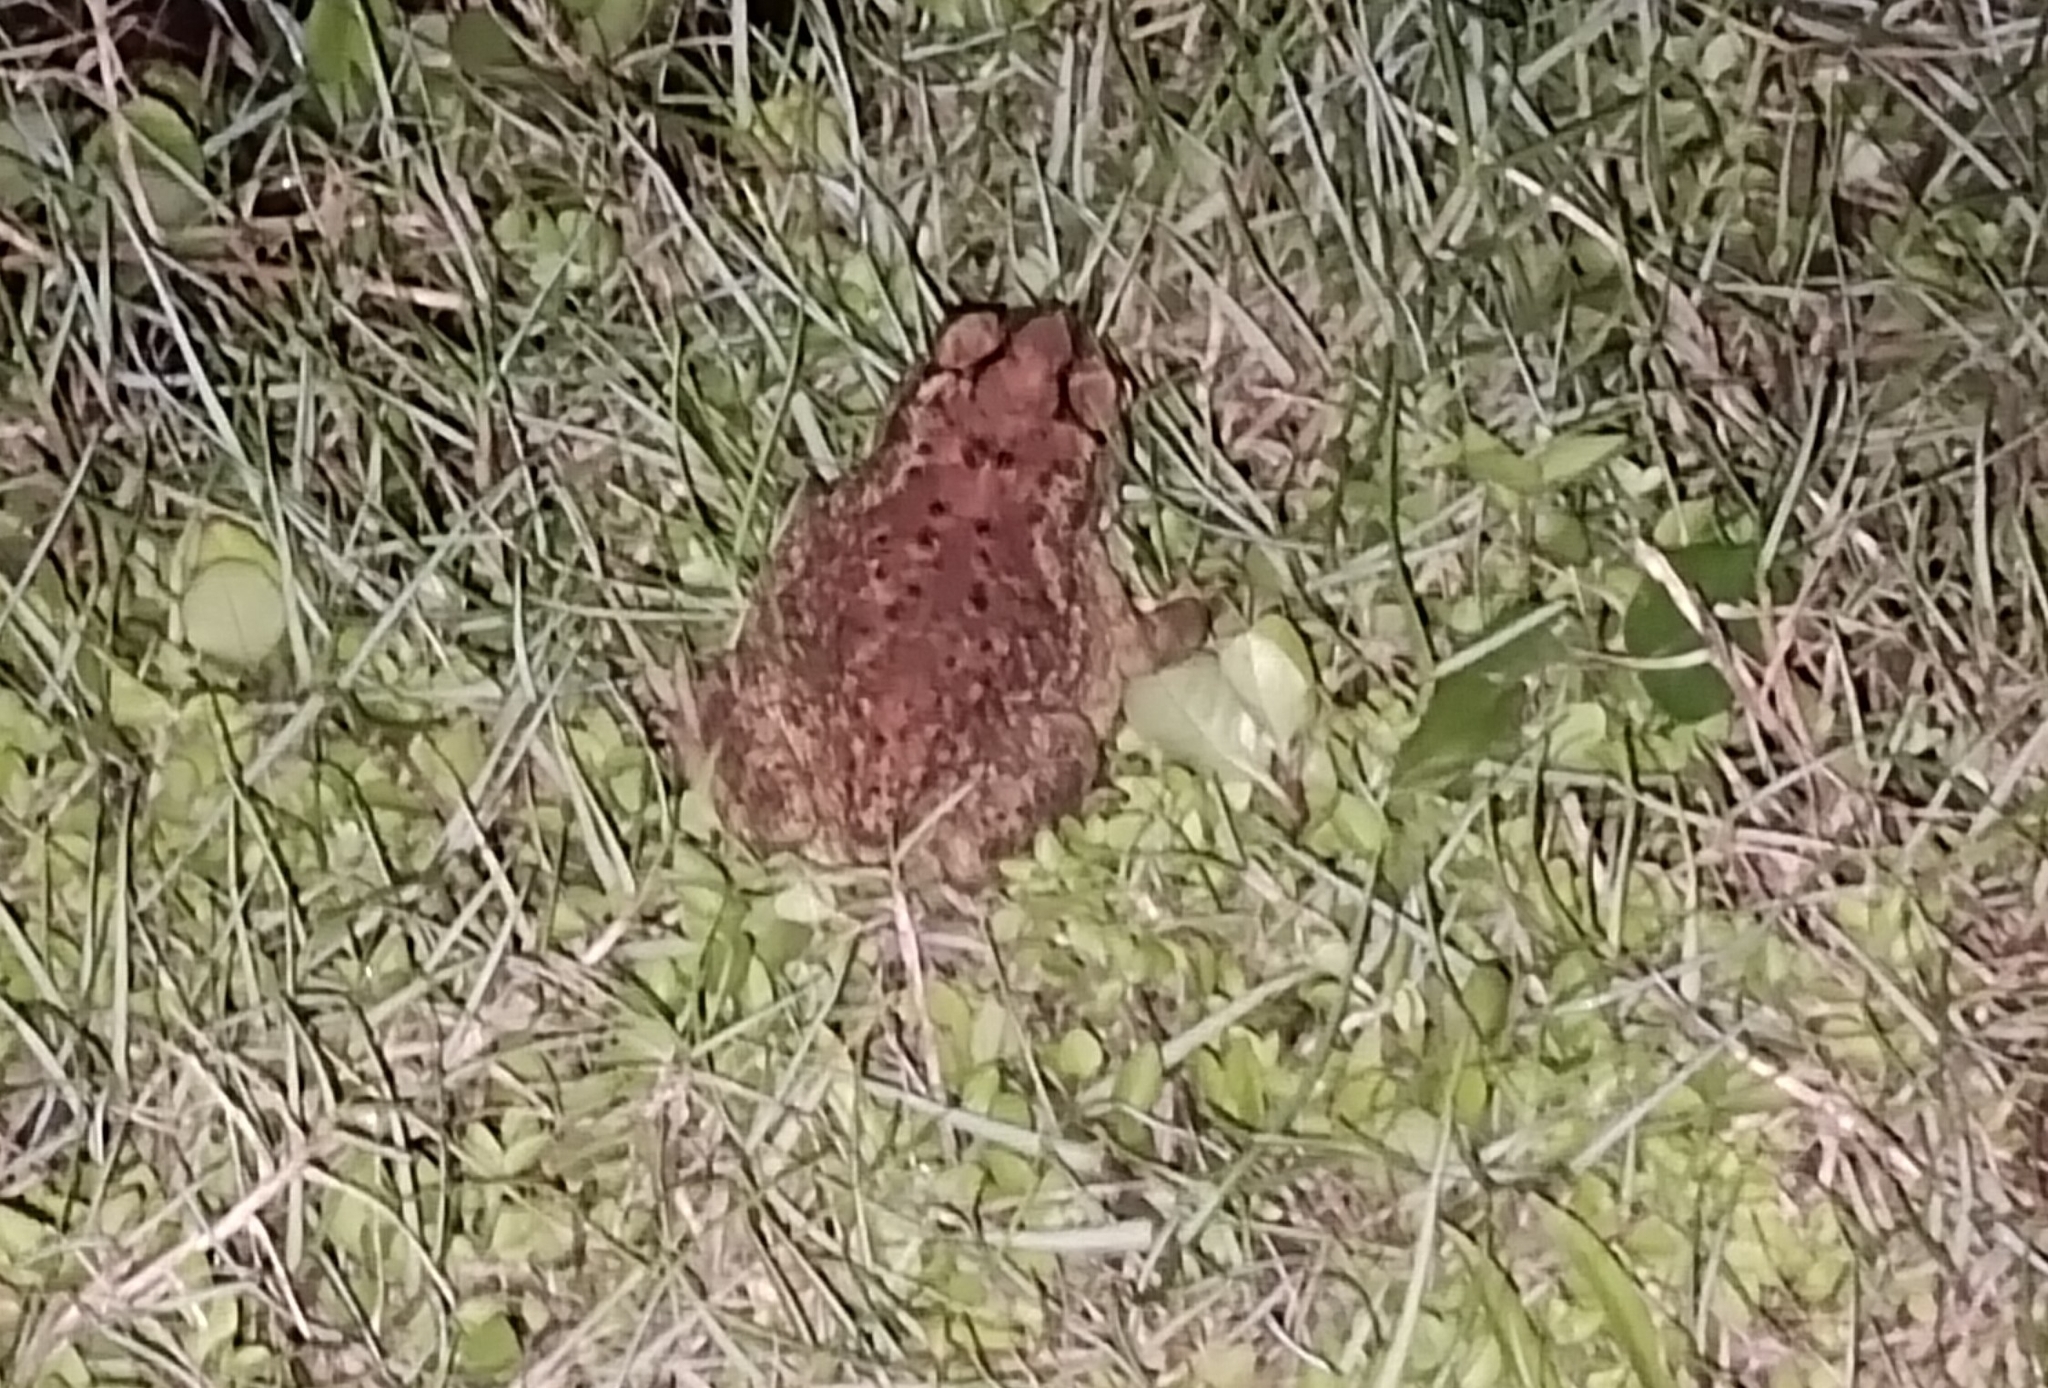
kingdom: Animalia
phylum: Chordata
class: Amphibia
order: Anura
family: Bufonidae
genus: Duttaphrynus
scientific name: Duttaphrynus melanostictus
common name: Common sunda toad
